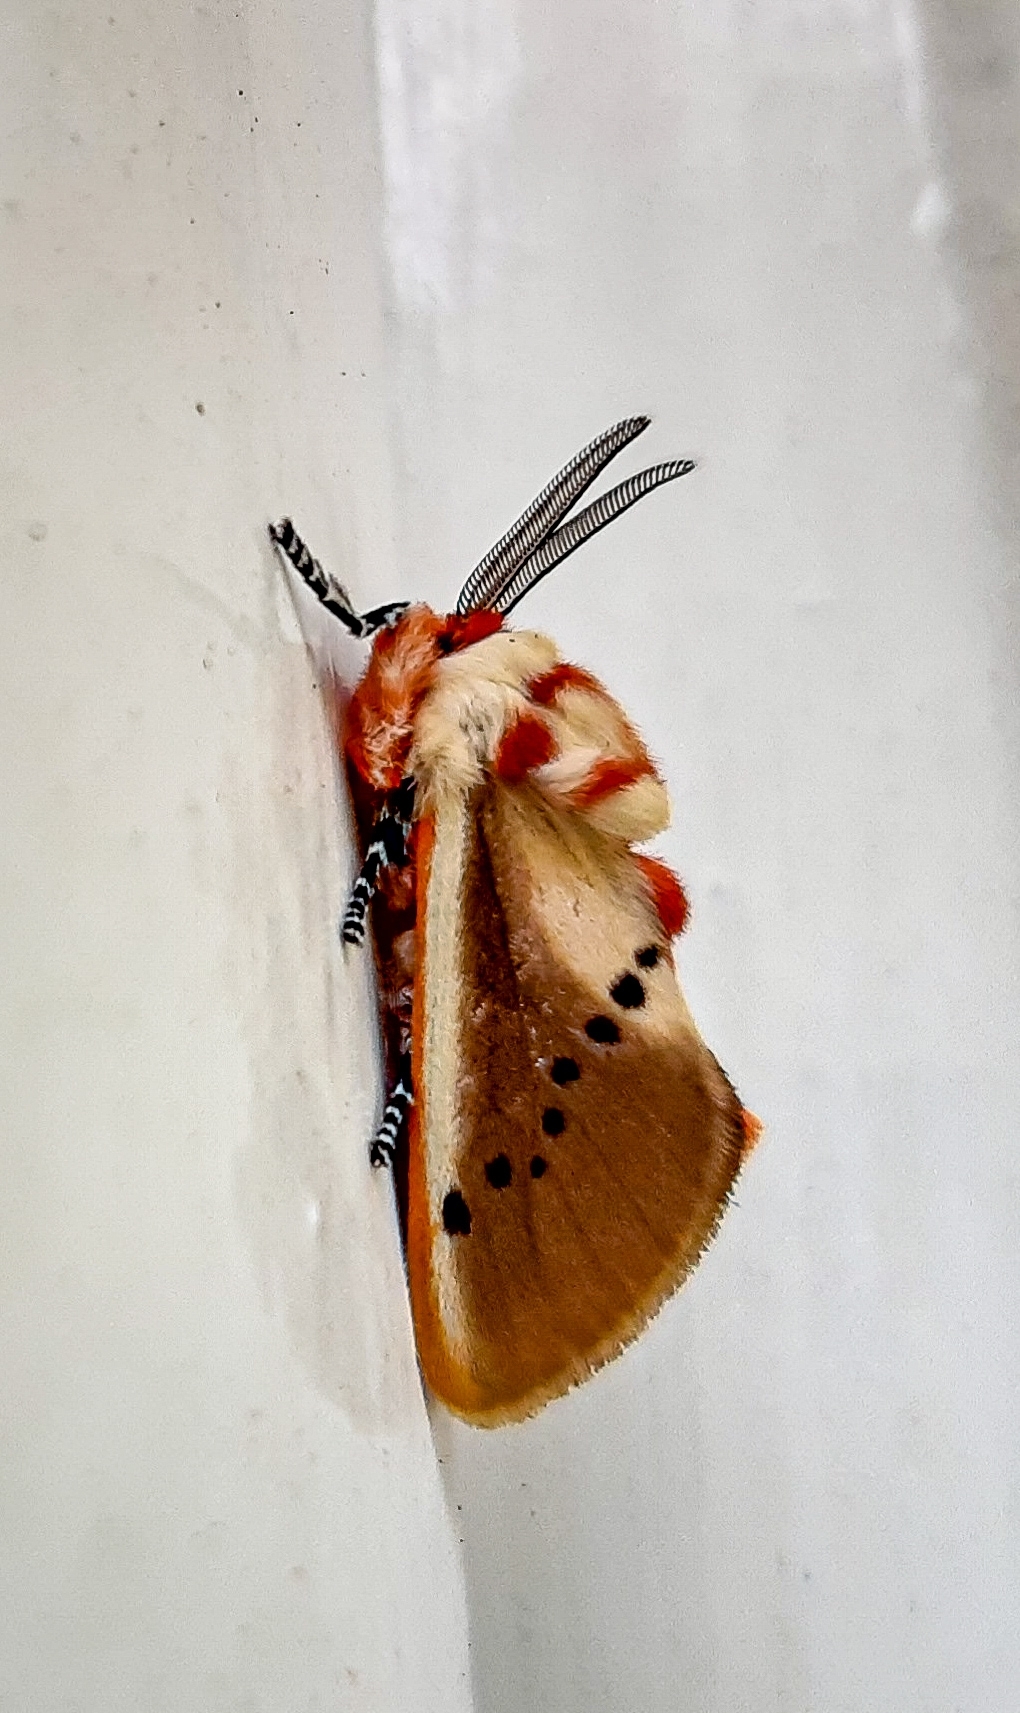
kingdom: Animalia
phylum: Arthropoda
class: Insecta
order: Lepidoptera
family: Megalopygidae
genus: Trosia
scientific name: Trosia fumosa
